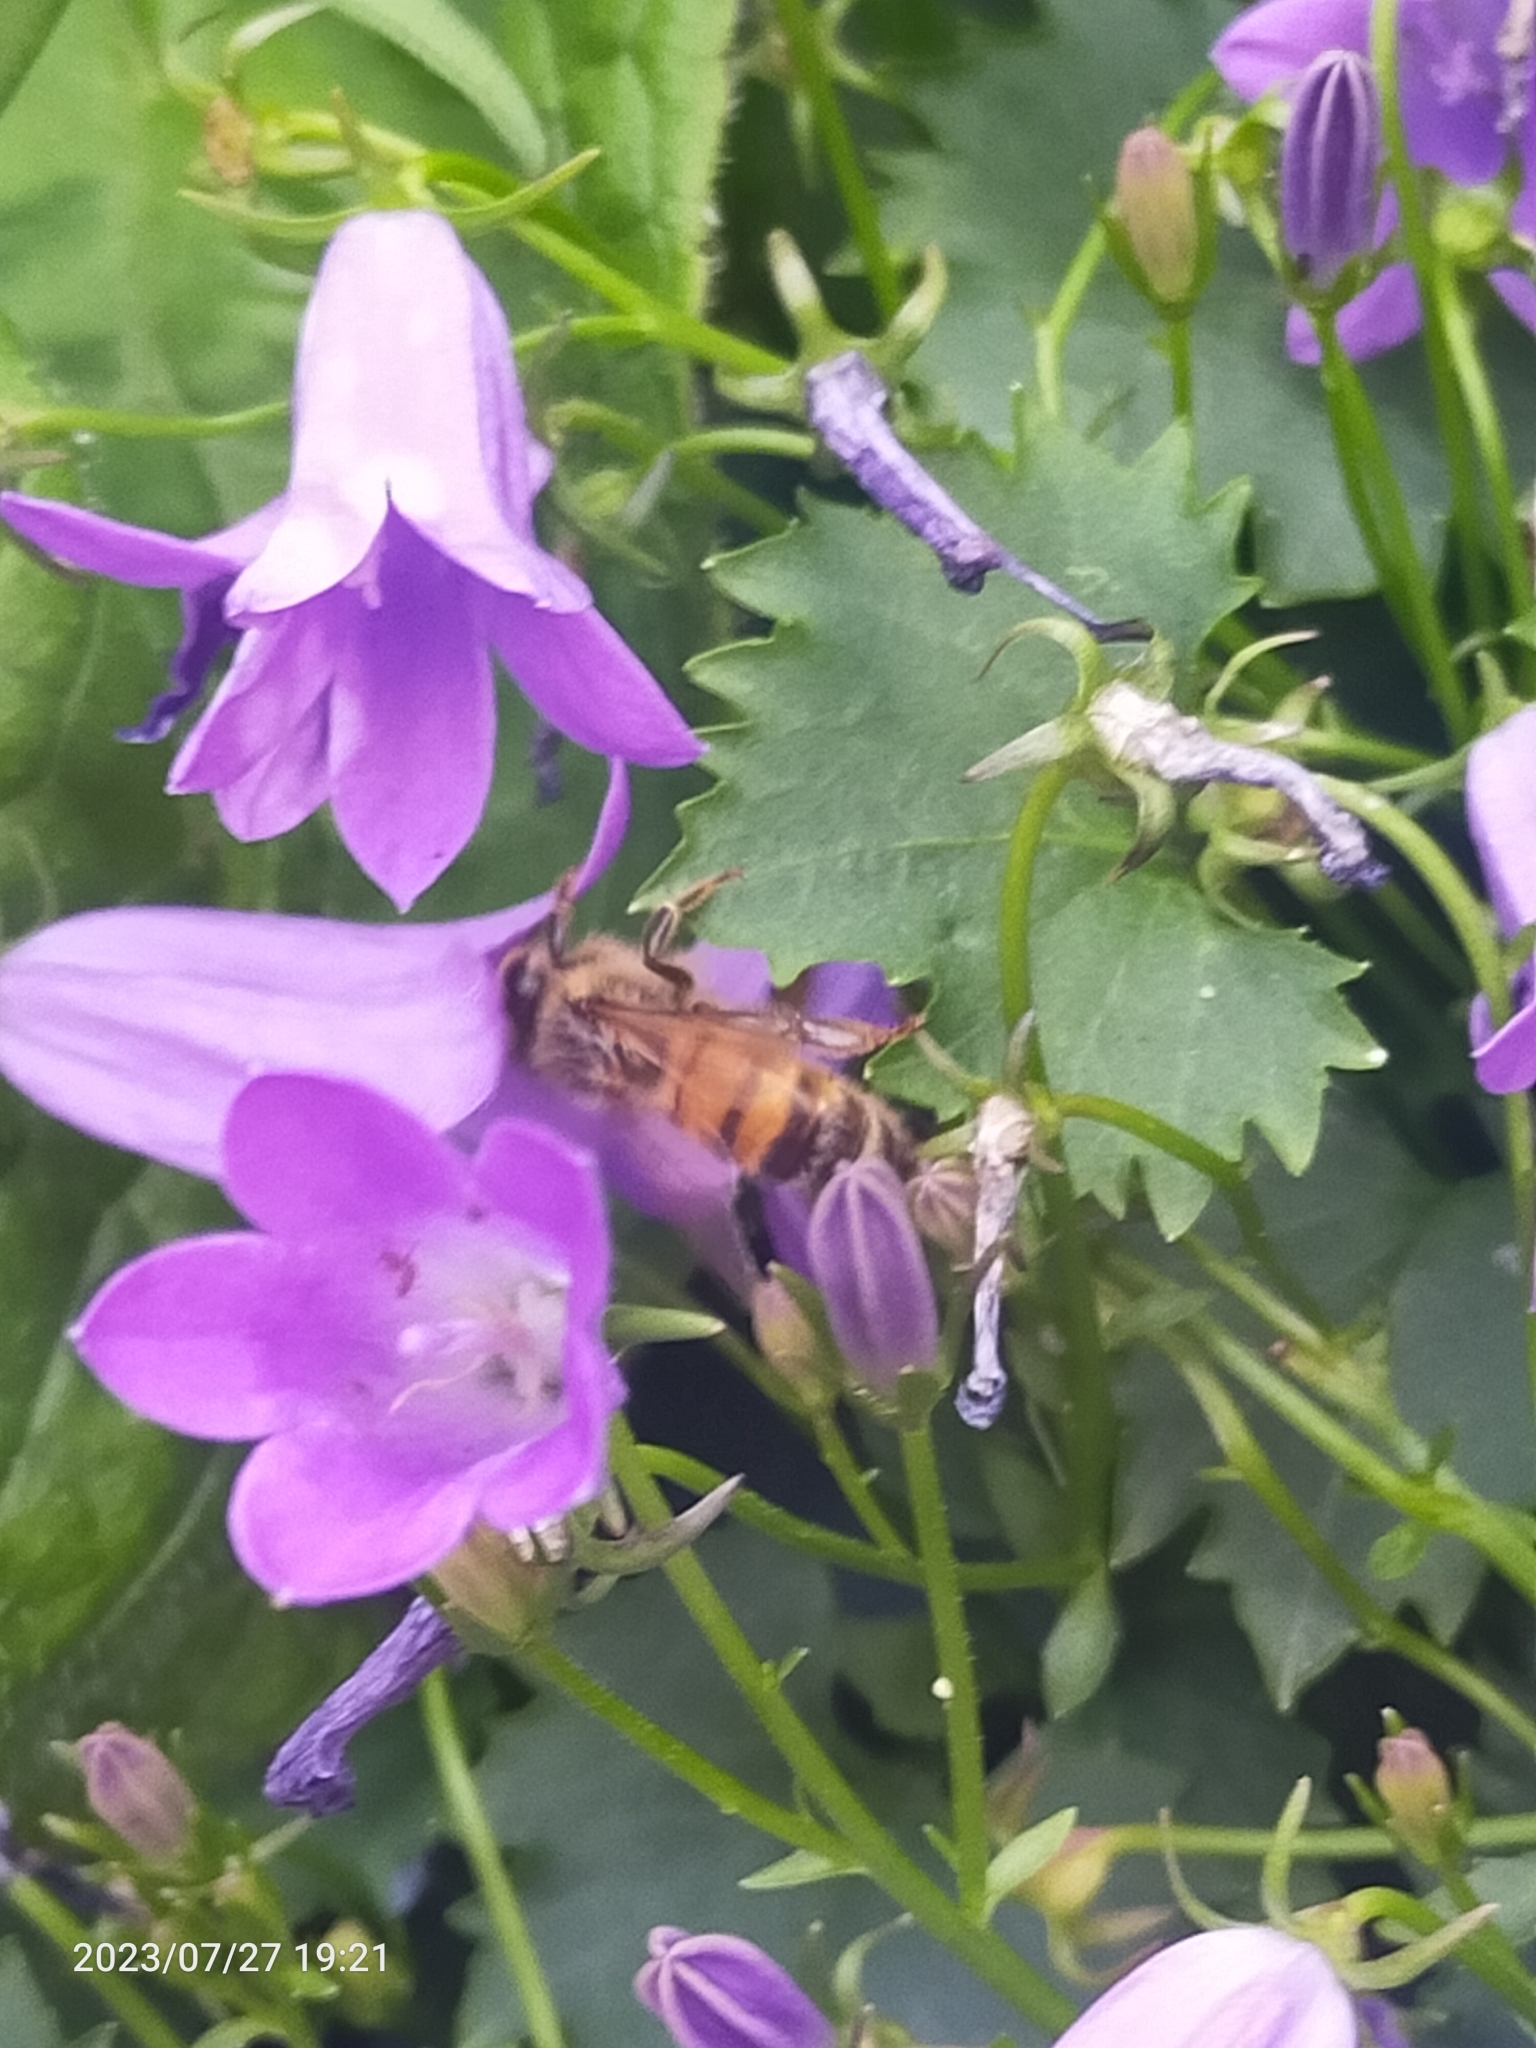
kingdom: Animalia
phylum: Arthropoda
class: Insecta
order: Hymenoptera
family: Apidae
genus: Apis
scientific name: Apis mellifera
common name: Honey bee
